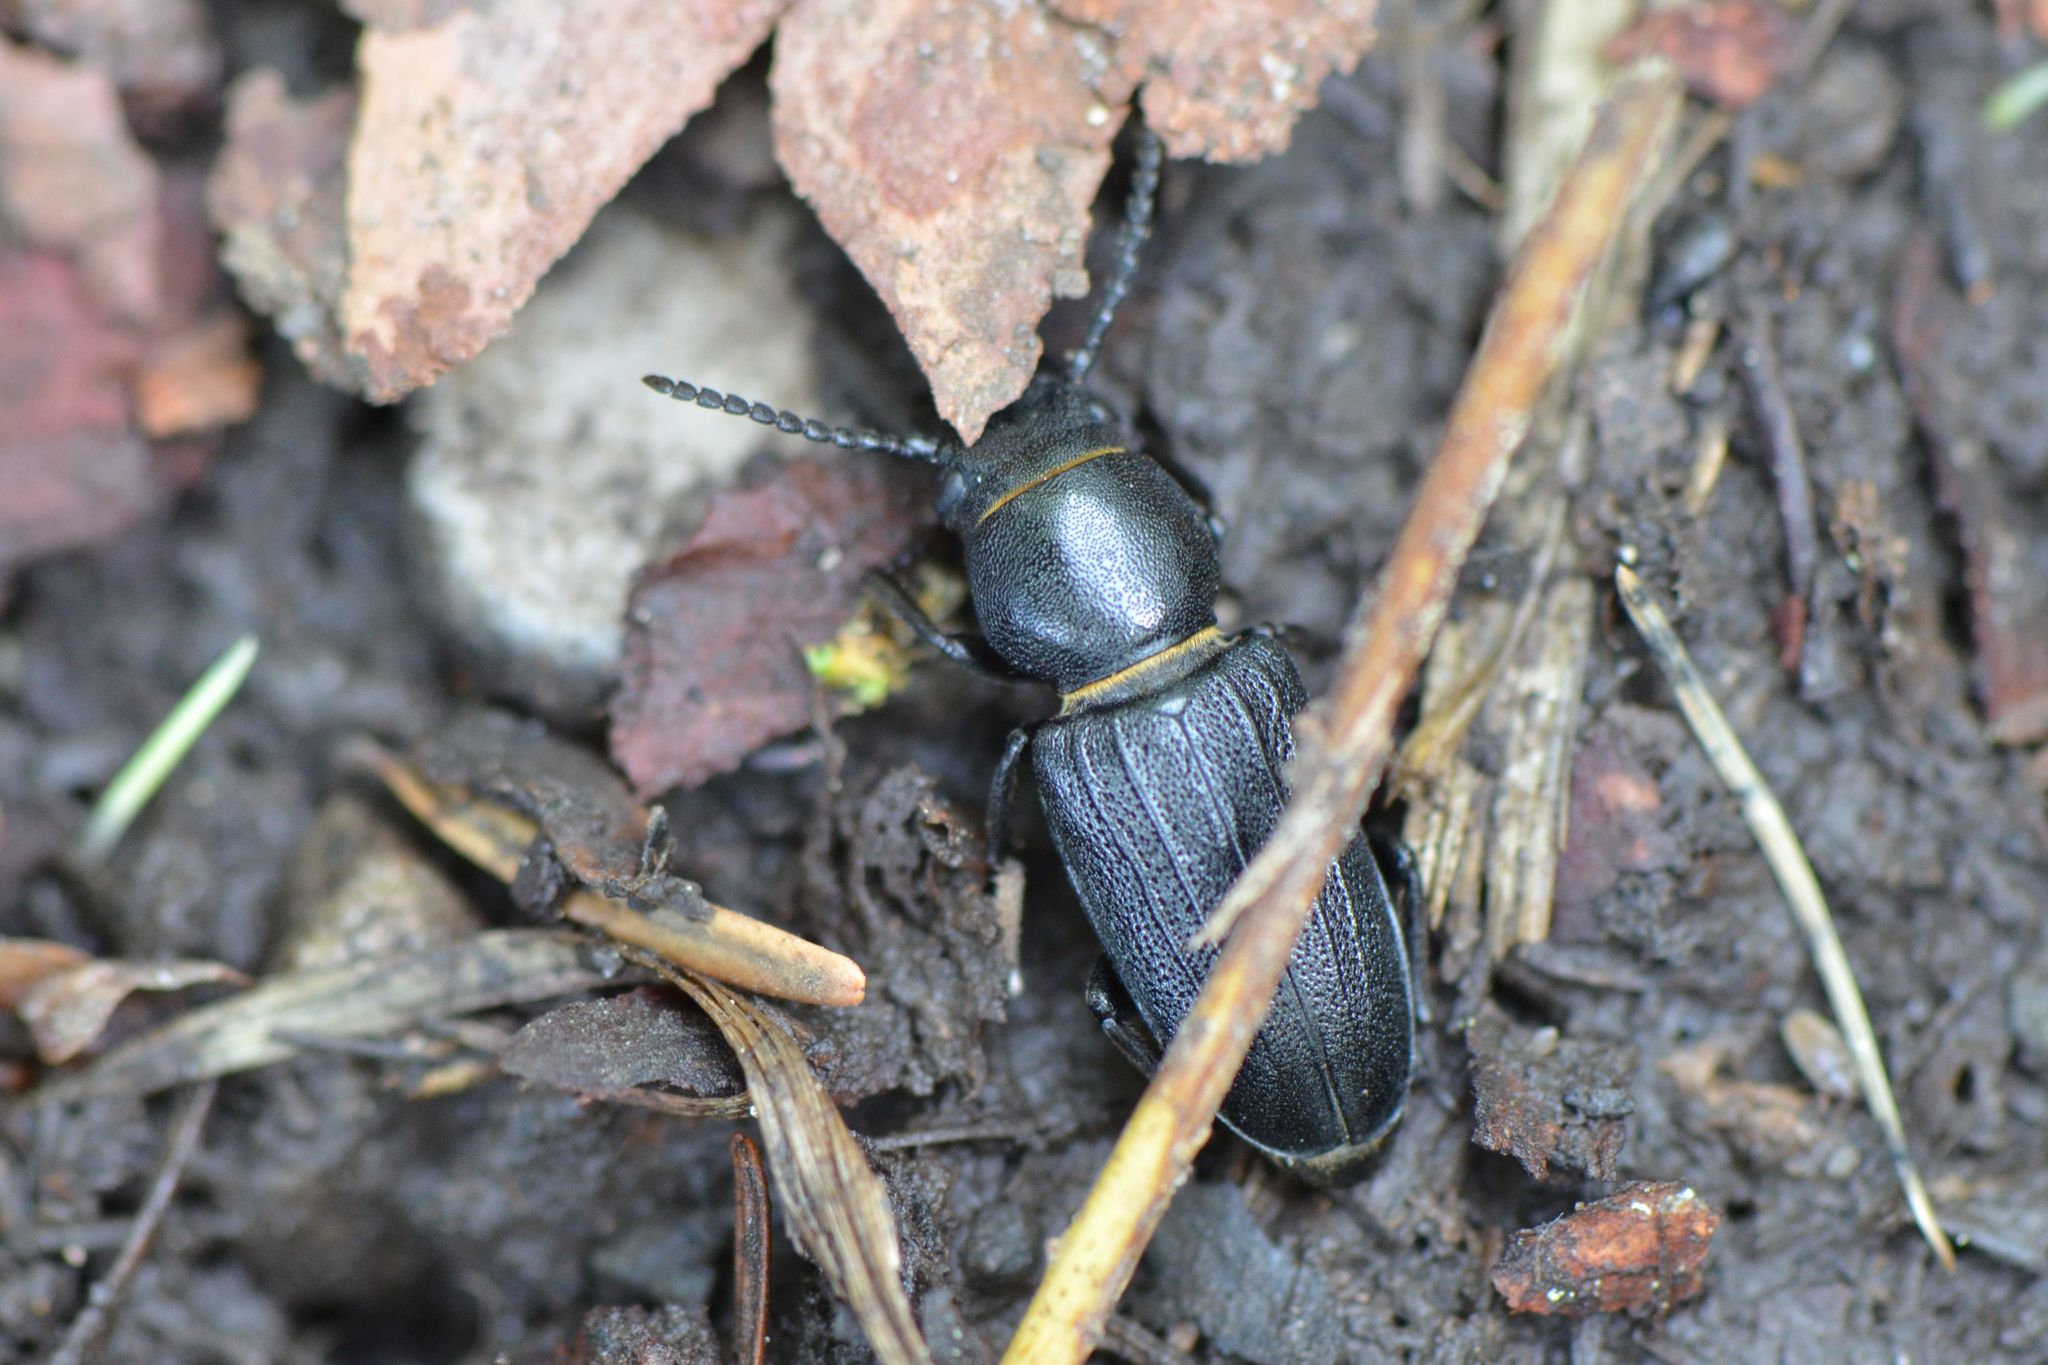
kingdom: Animalia
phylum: Arthropoda
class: Insecta
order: Coleoptera
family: Cerambycidae
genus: Spondylis
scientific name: Spondylis buprestoides
